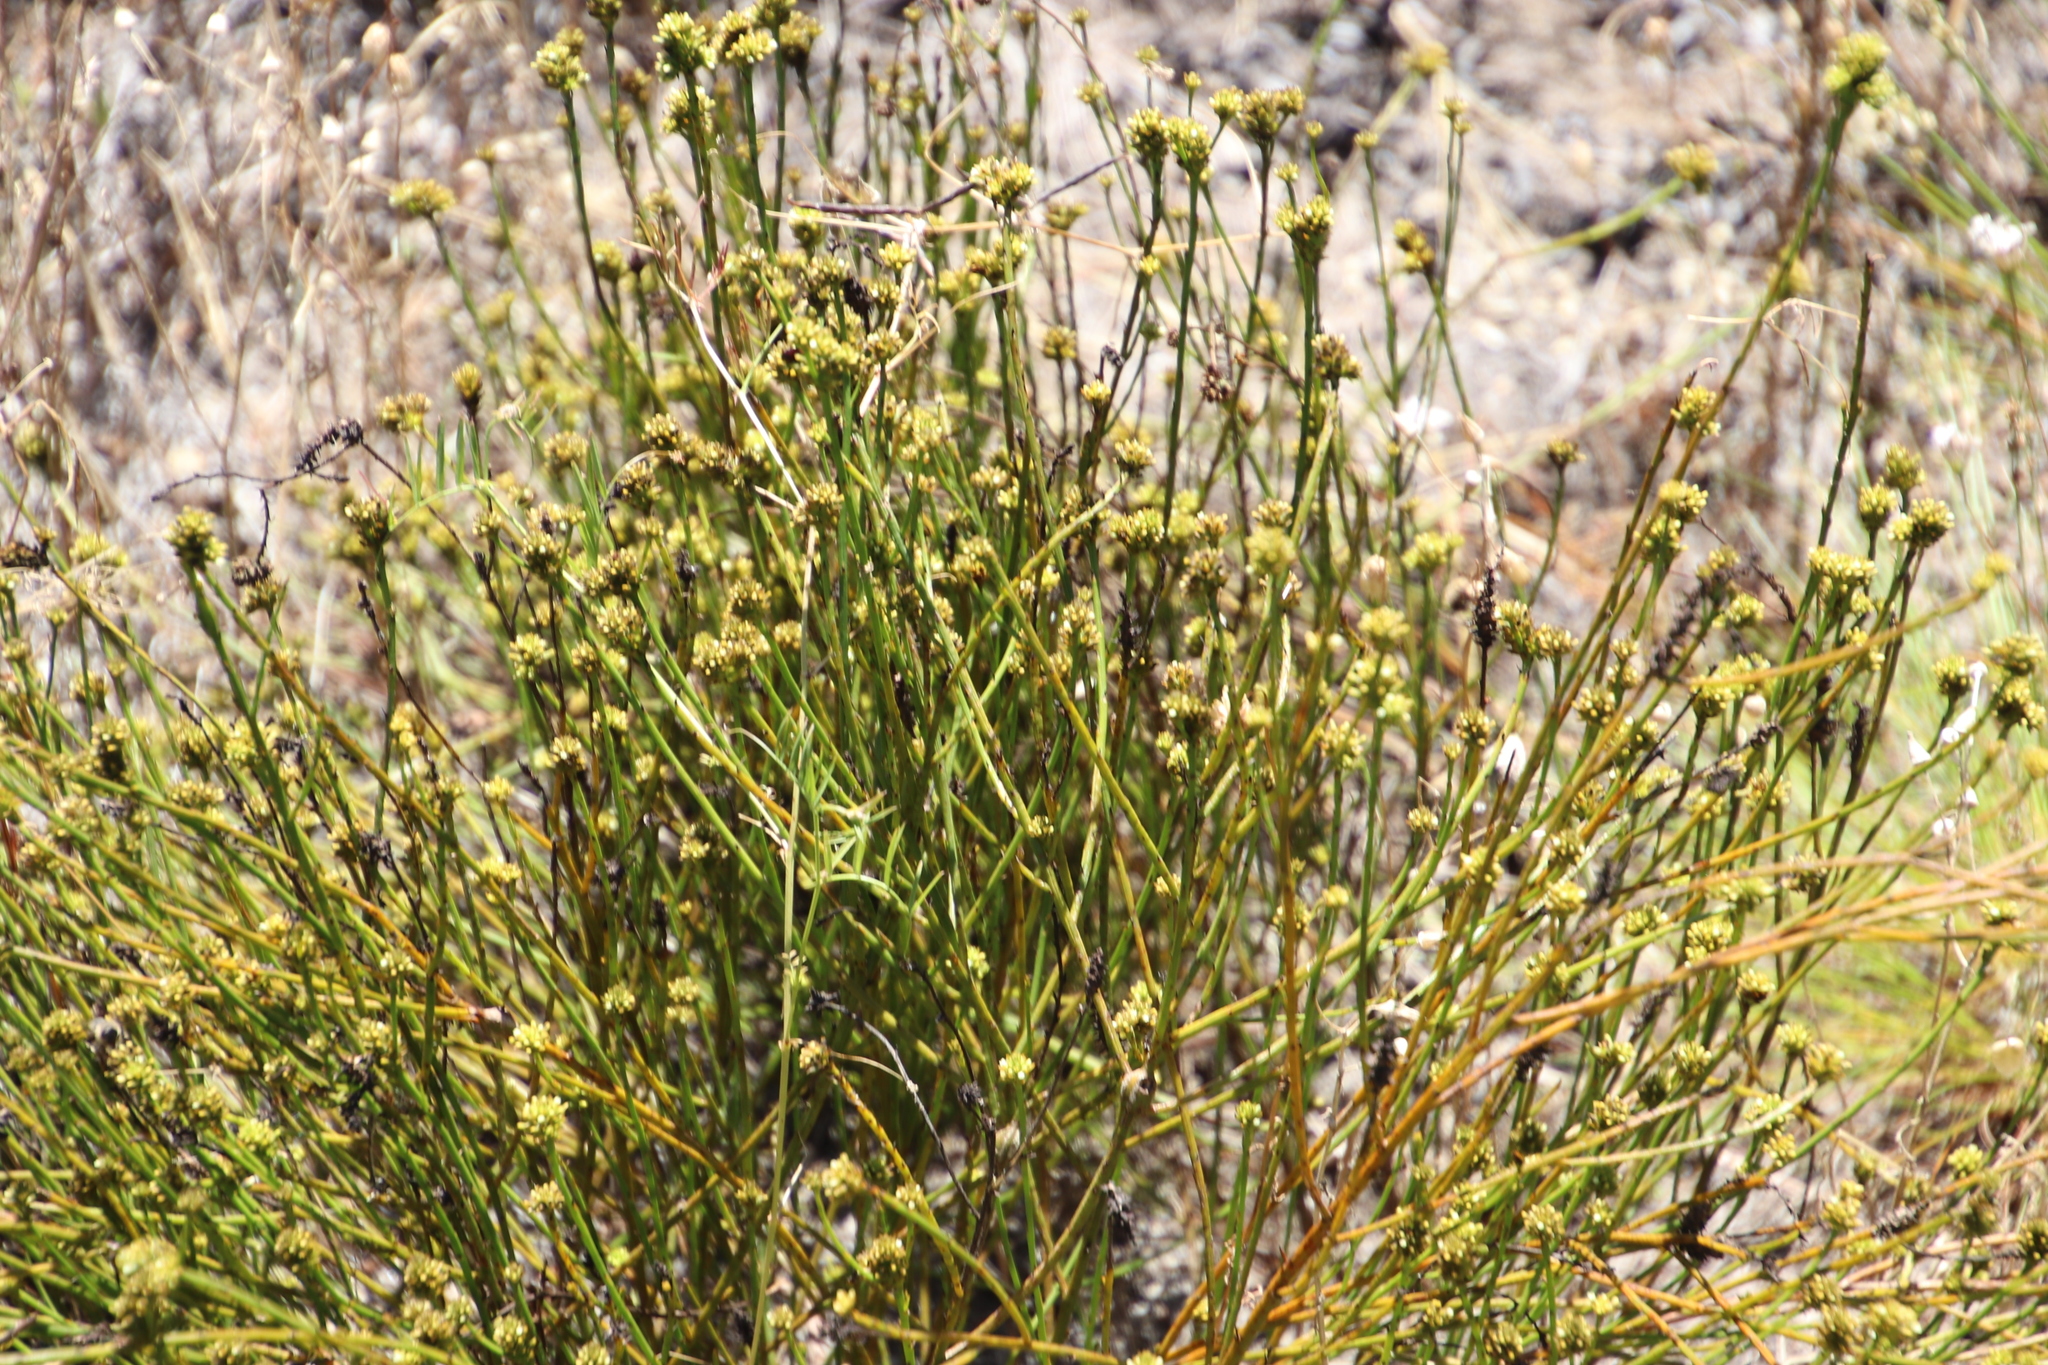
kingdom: Plantae
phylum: Tracheophyta
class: Magnoliopsida
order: Santalales
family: Thesiaceae
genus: Thesium
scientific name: Thesium aggregatum
